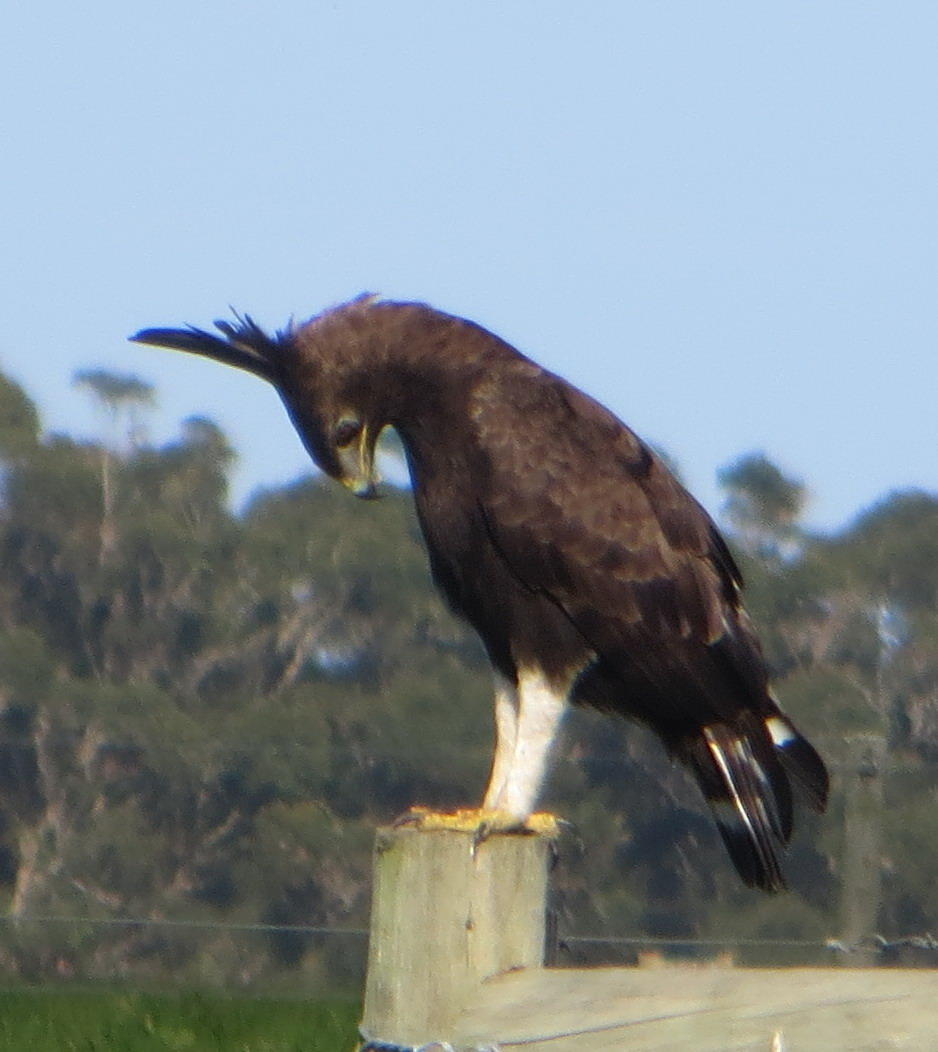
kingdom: Animalia
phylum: Chordata
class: Aves
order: Accipitriformes
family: Accipitridae
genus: Lophaetus
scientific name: Lophaetus occipitalis
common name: Long-crested eagle
